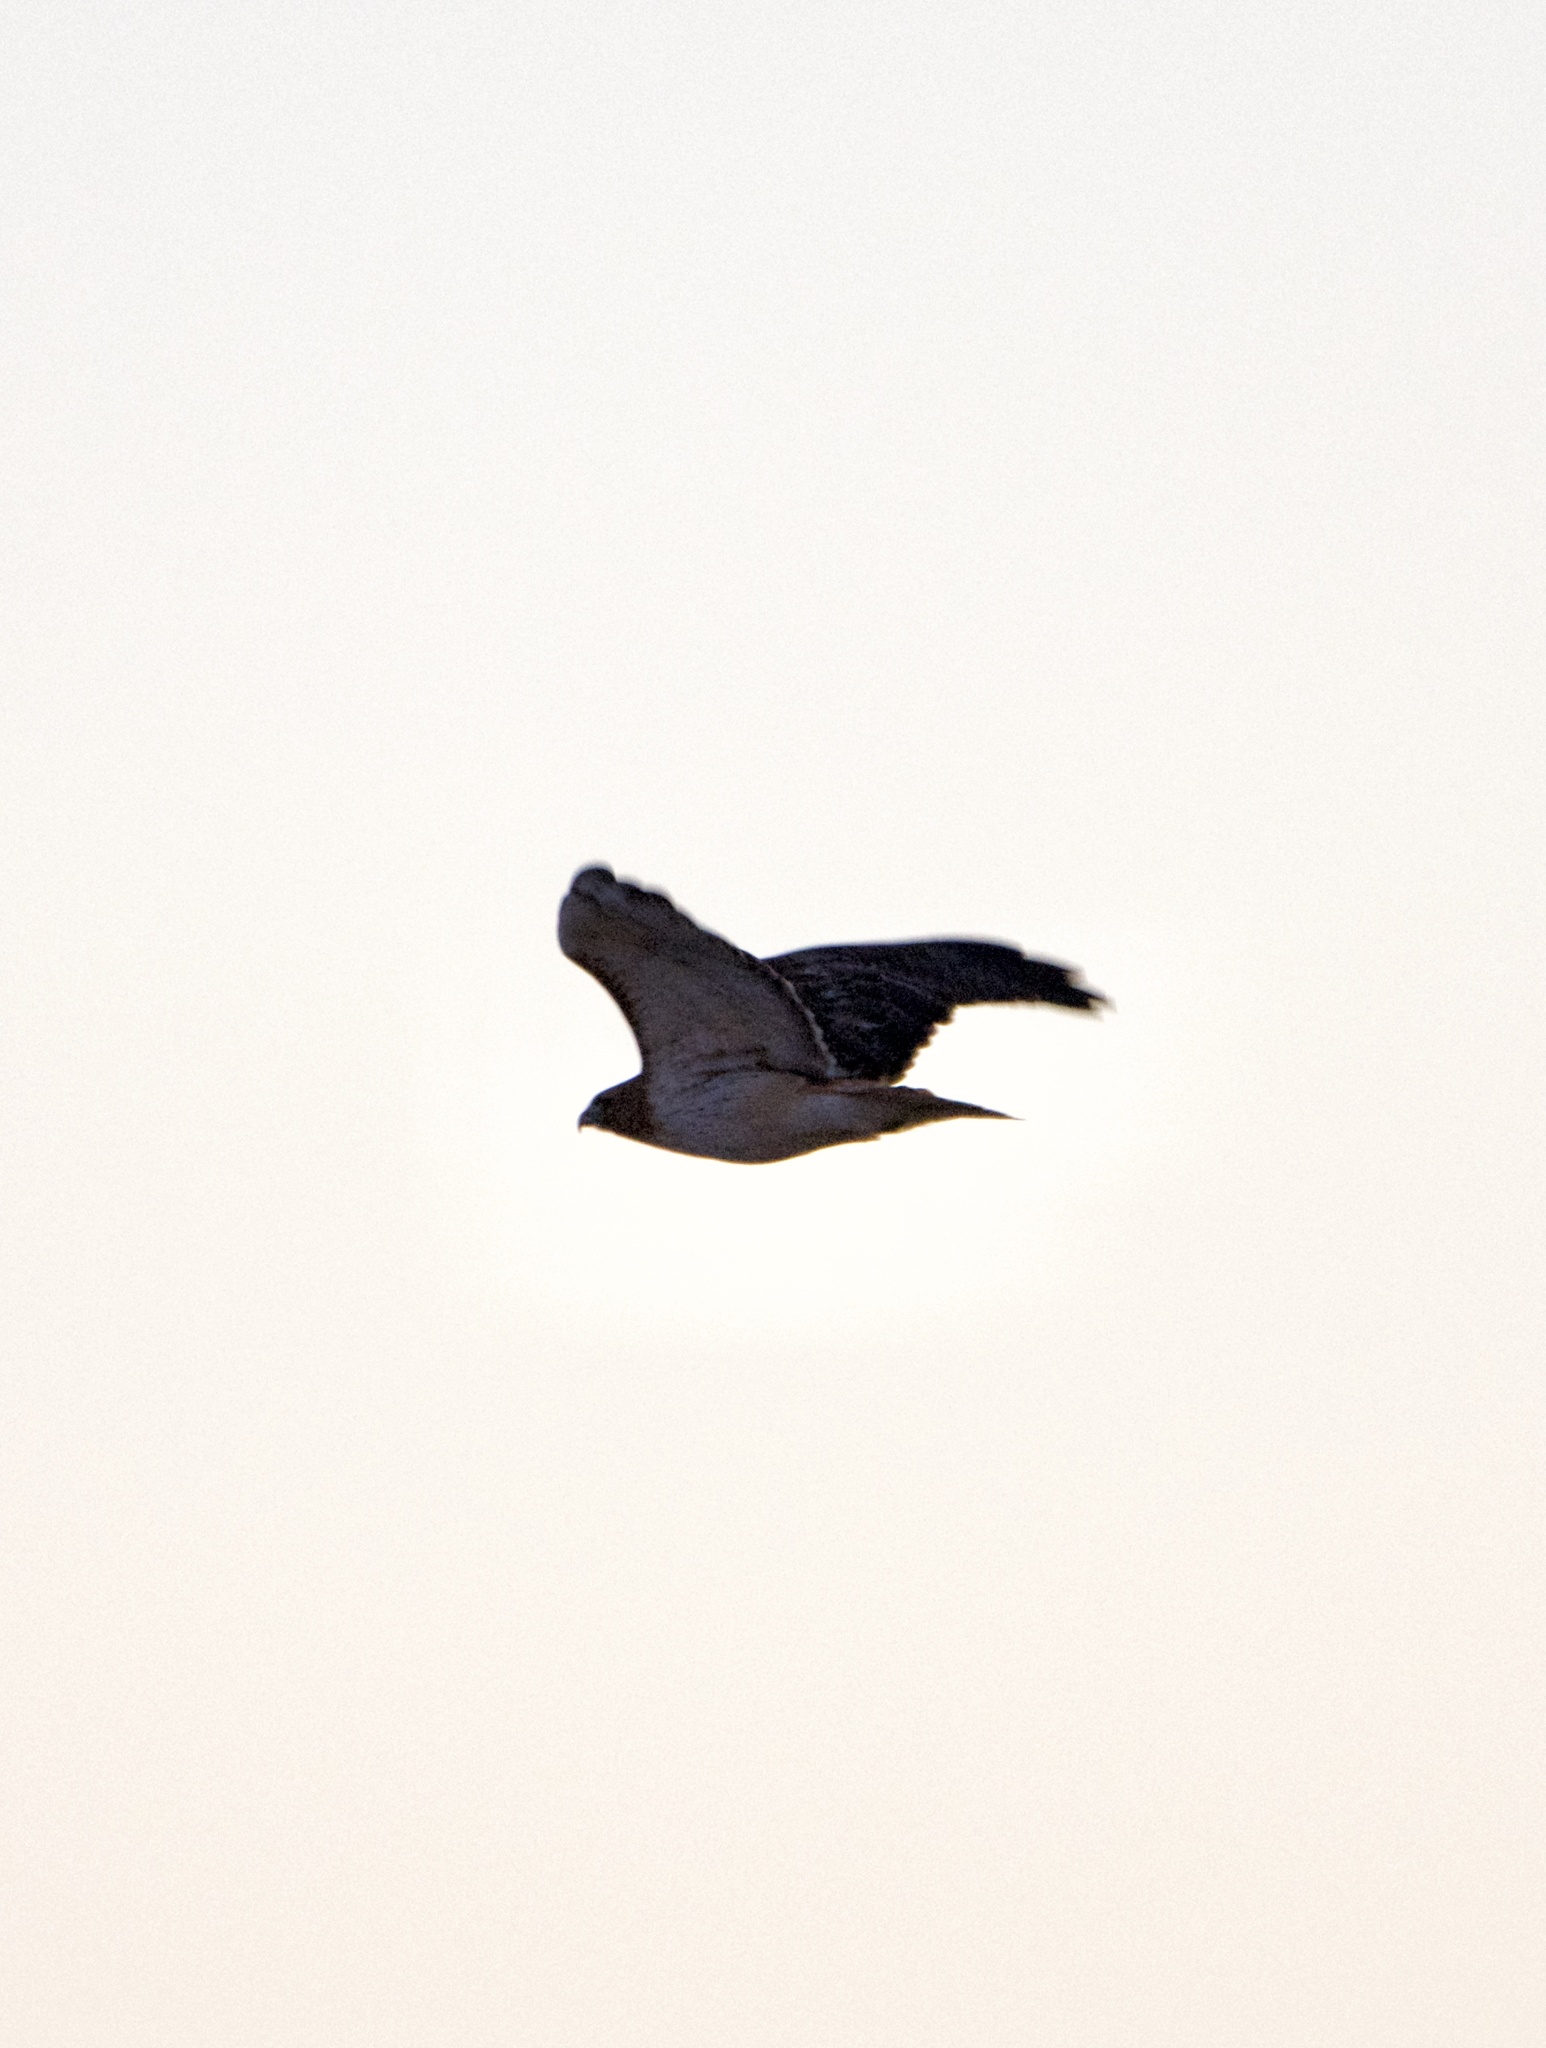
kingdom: Animalia
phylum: Chordata
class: Aves
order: Accipitriformes
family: Accipitridae
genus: Buteo
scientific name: Buteo jamaicensis
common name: Red-tailed hawk
